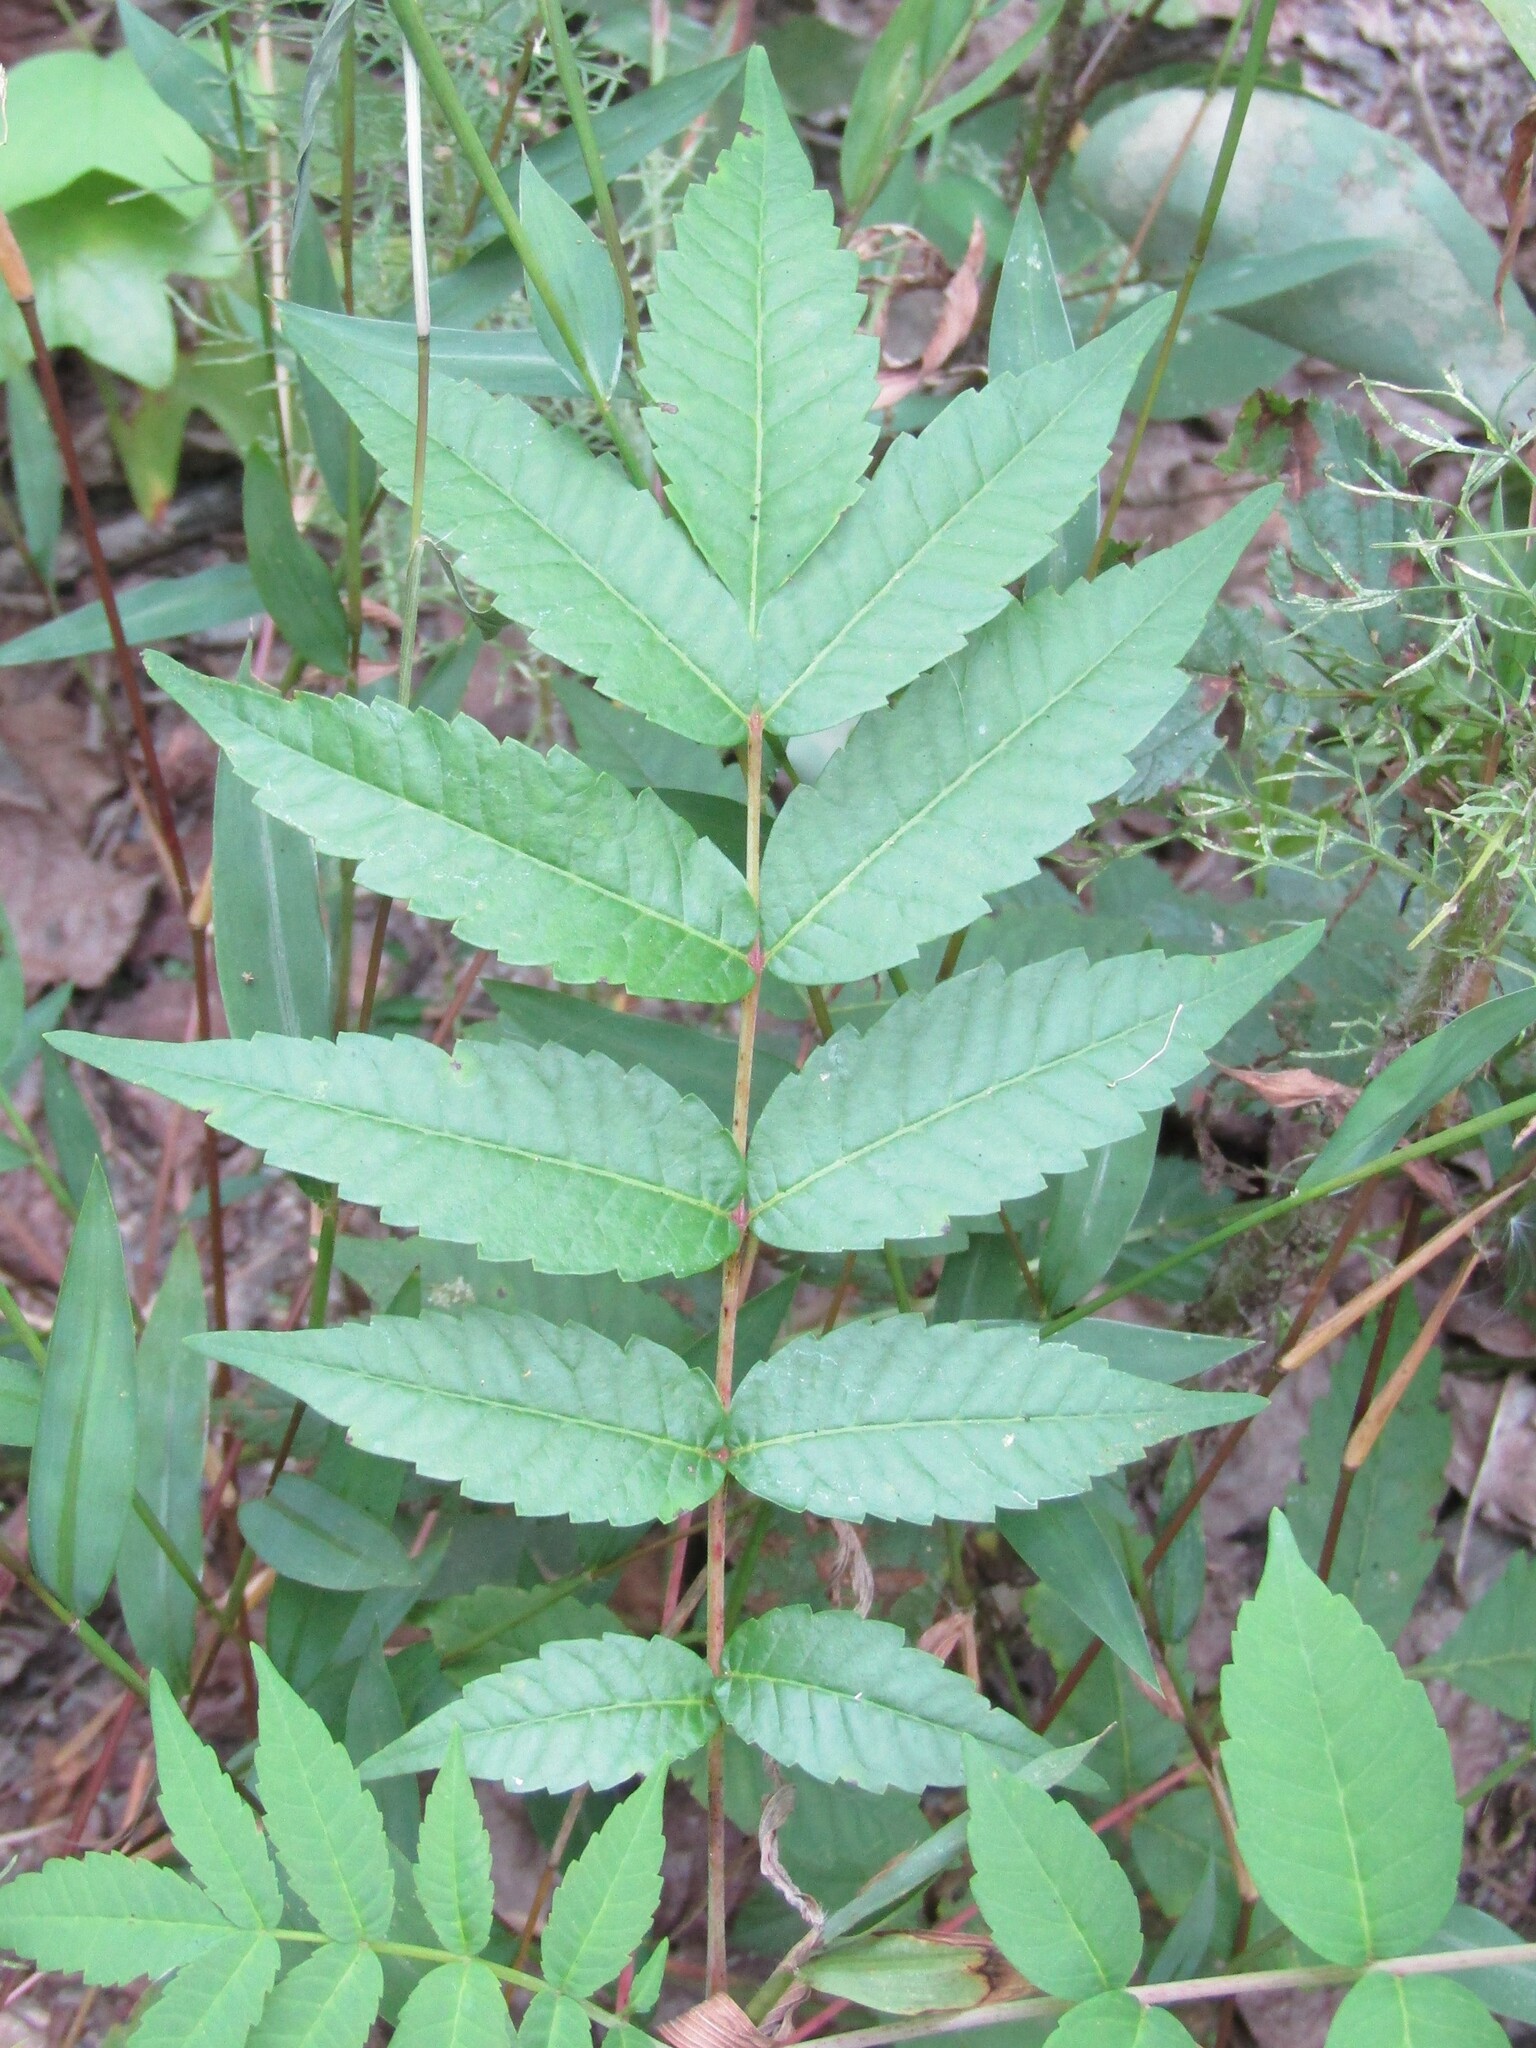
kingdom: Plantae
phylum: Tracheophyta
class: Magnoliopsida
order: Sapindales
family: Anacardiaceae
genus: Rhus
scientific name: Rhus glabra
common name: Scarlet sumac
